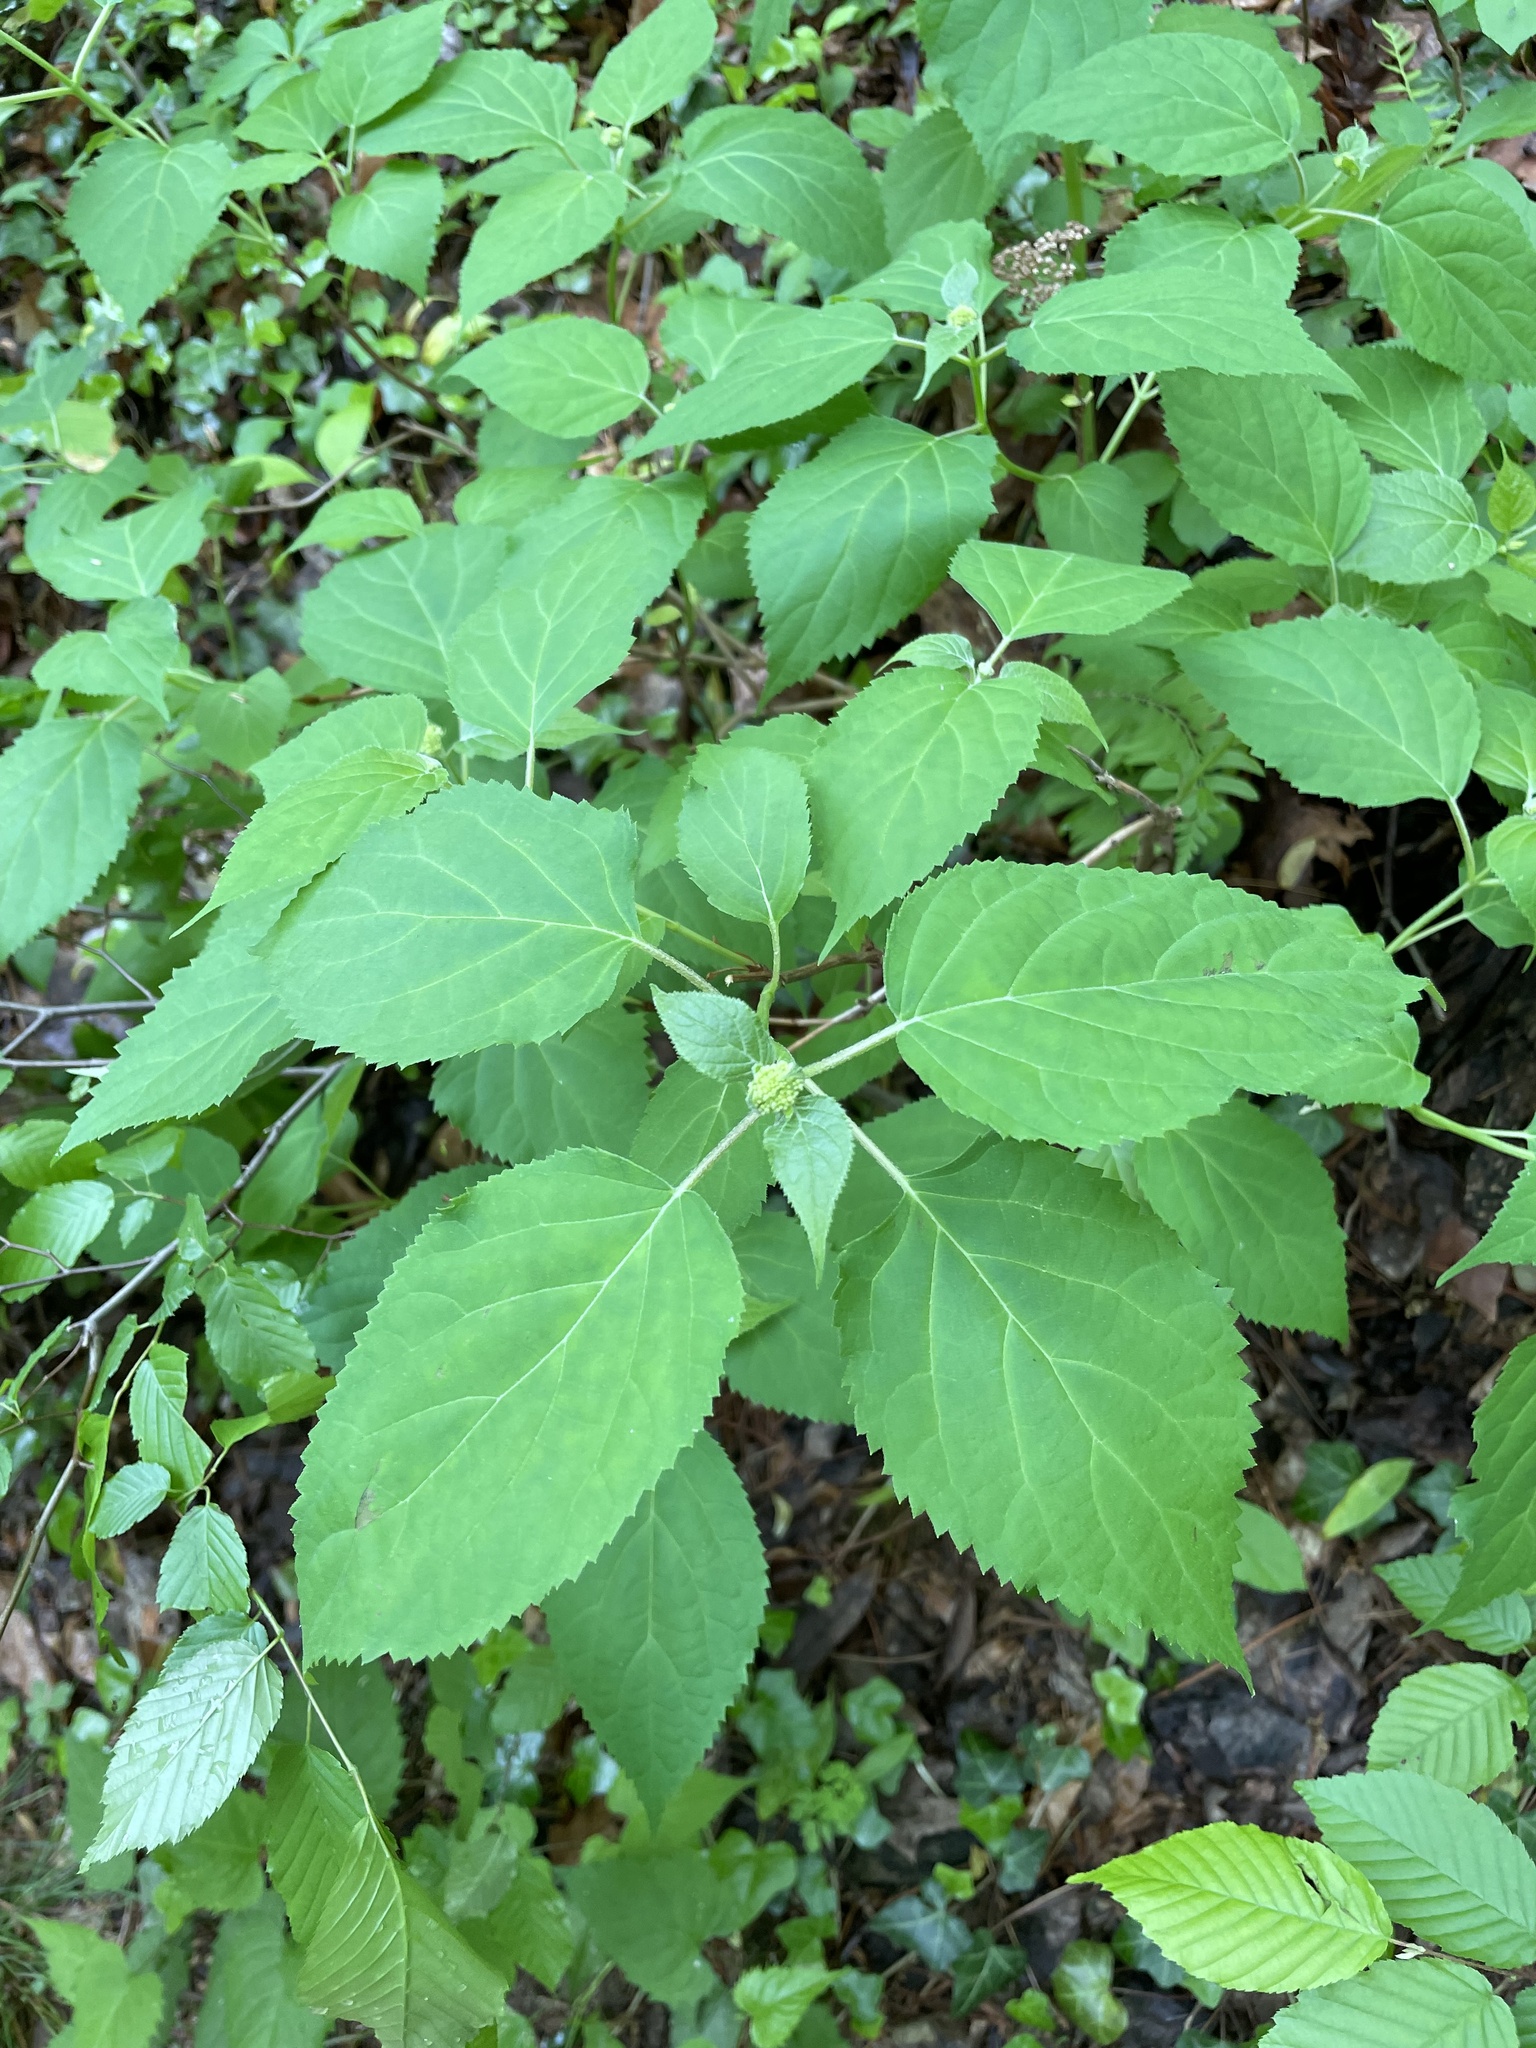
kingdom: Plantae
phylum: Tracheophyta
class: Magnoliopsida
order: Cornales
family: Hydrangeaceae
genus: Hydrangea
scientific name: Hydrangea arborescens
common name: Sevenbark
